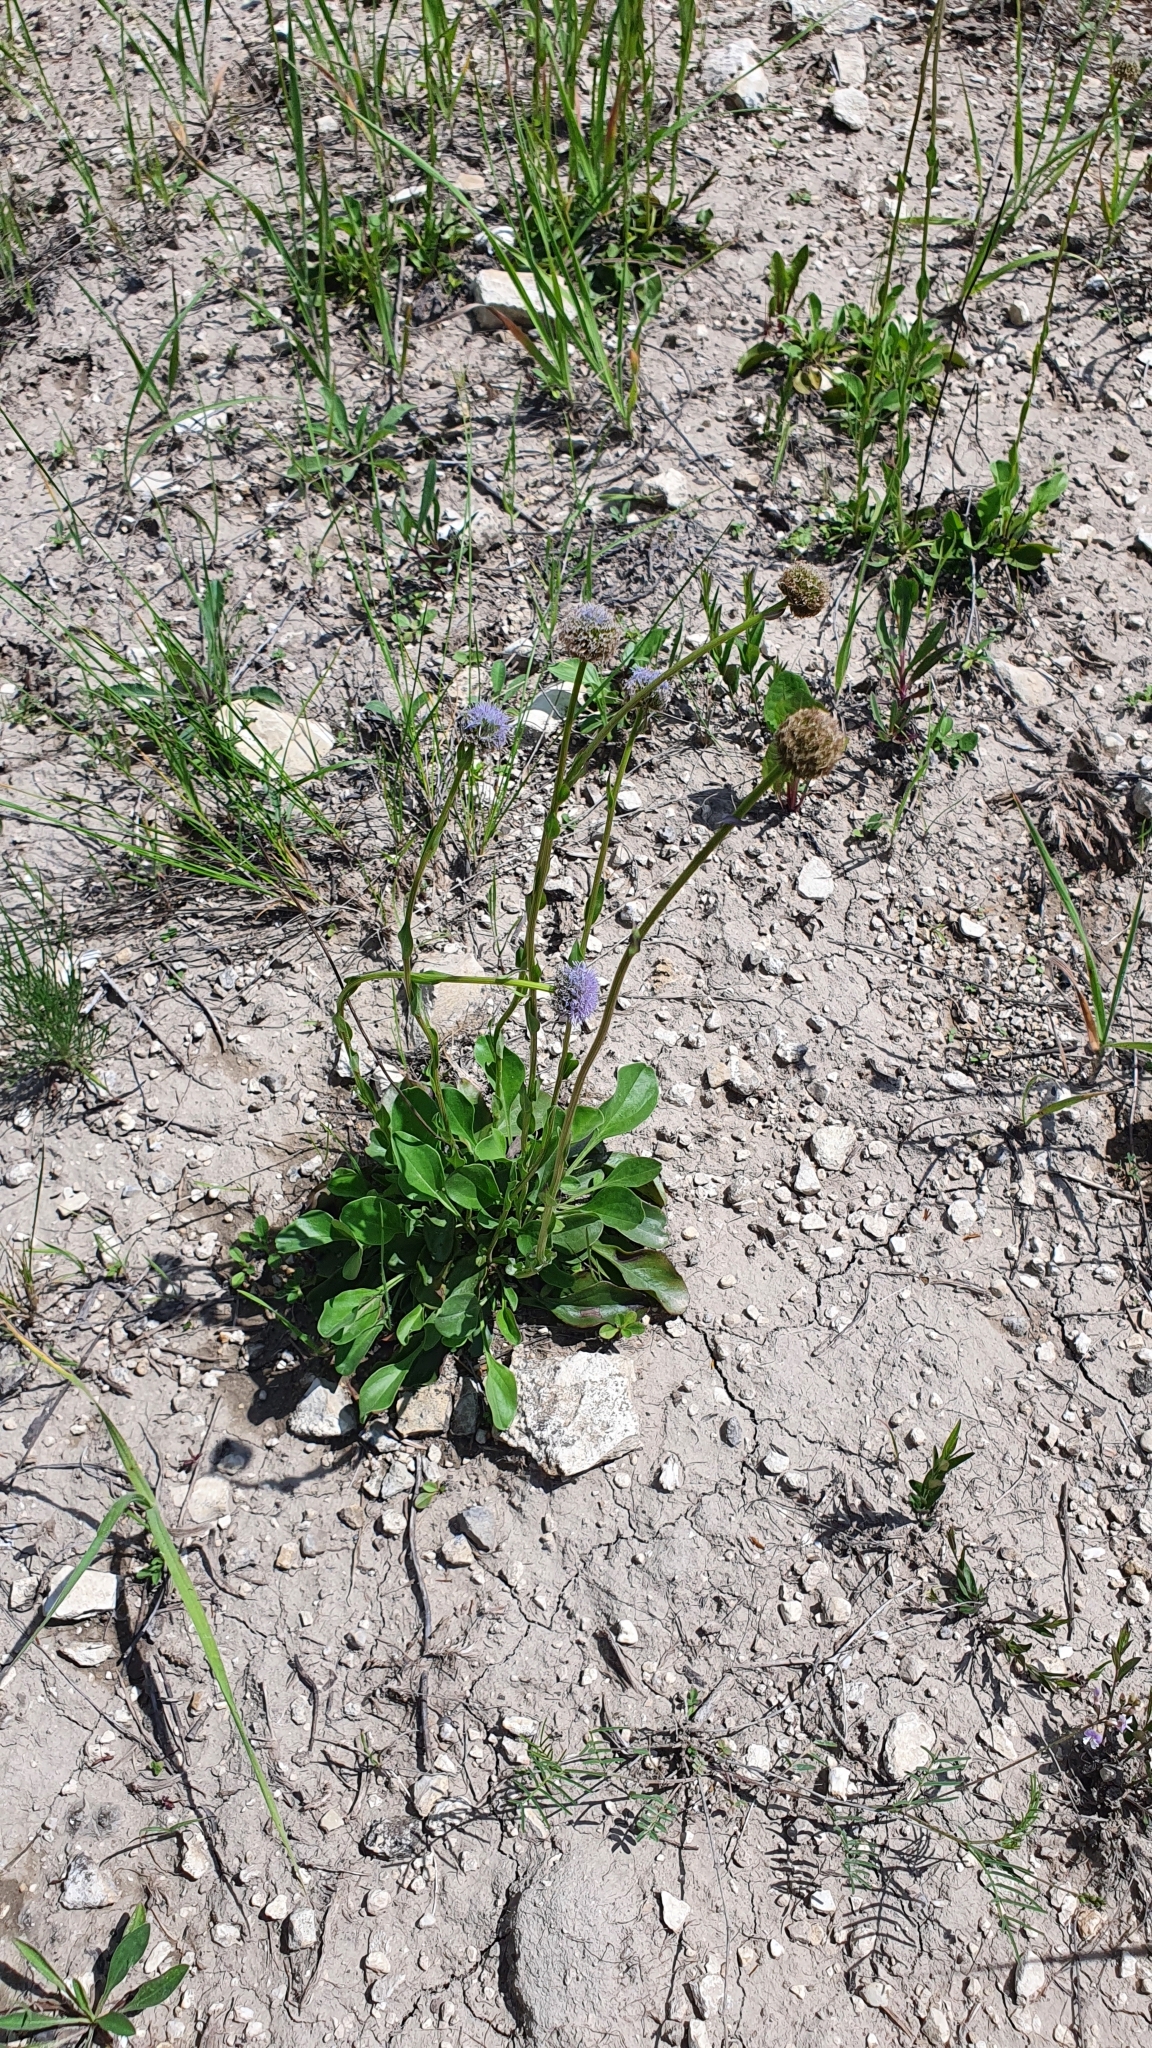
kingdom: Plantae
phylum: Tracheophyta
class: Magnoliopsida
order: Lamiales
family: Plantaginaceae
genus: Globularia
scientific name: Globularia bisnagarica
